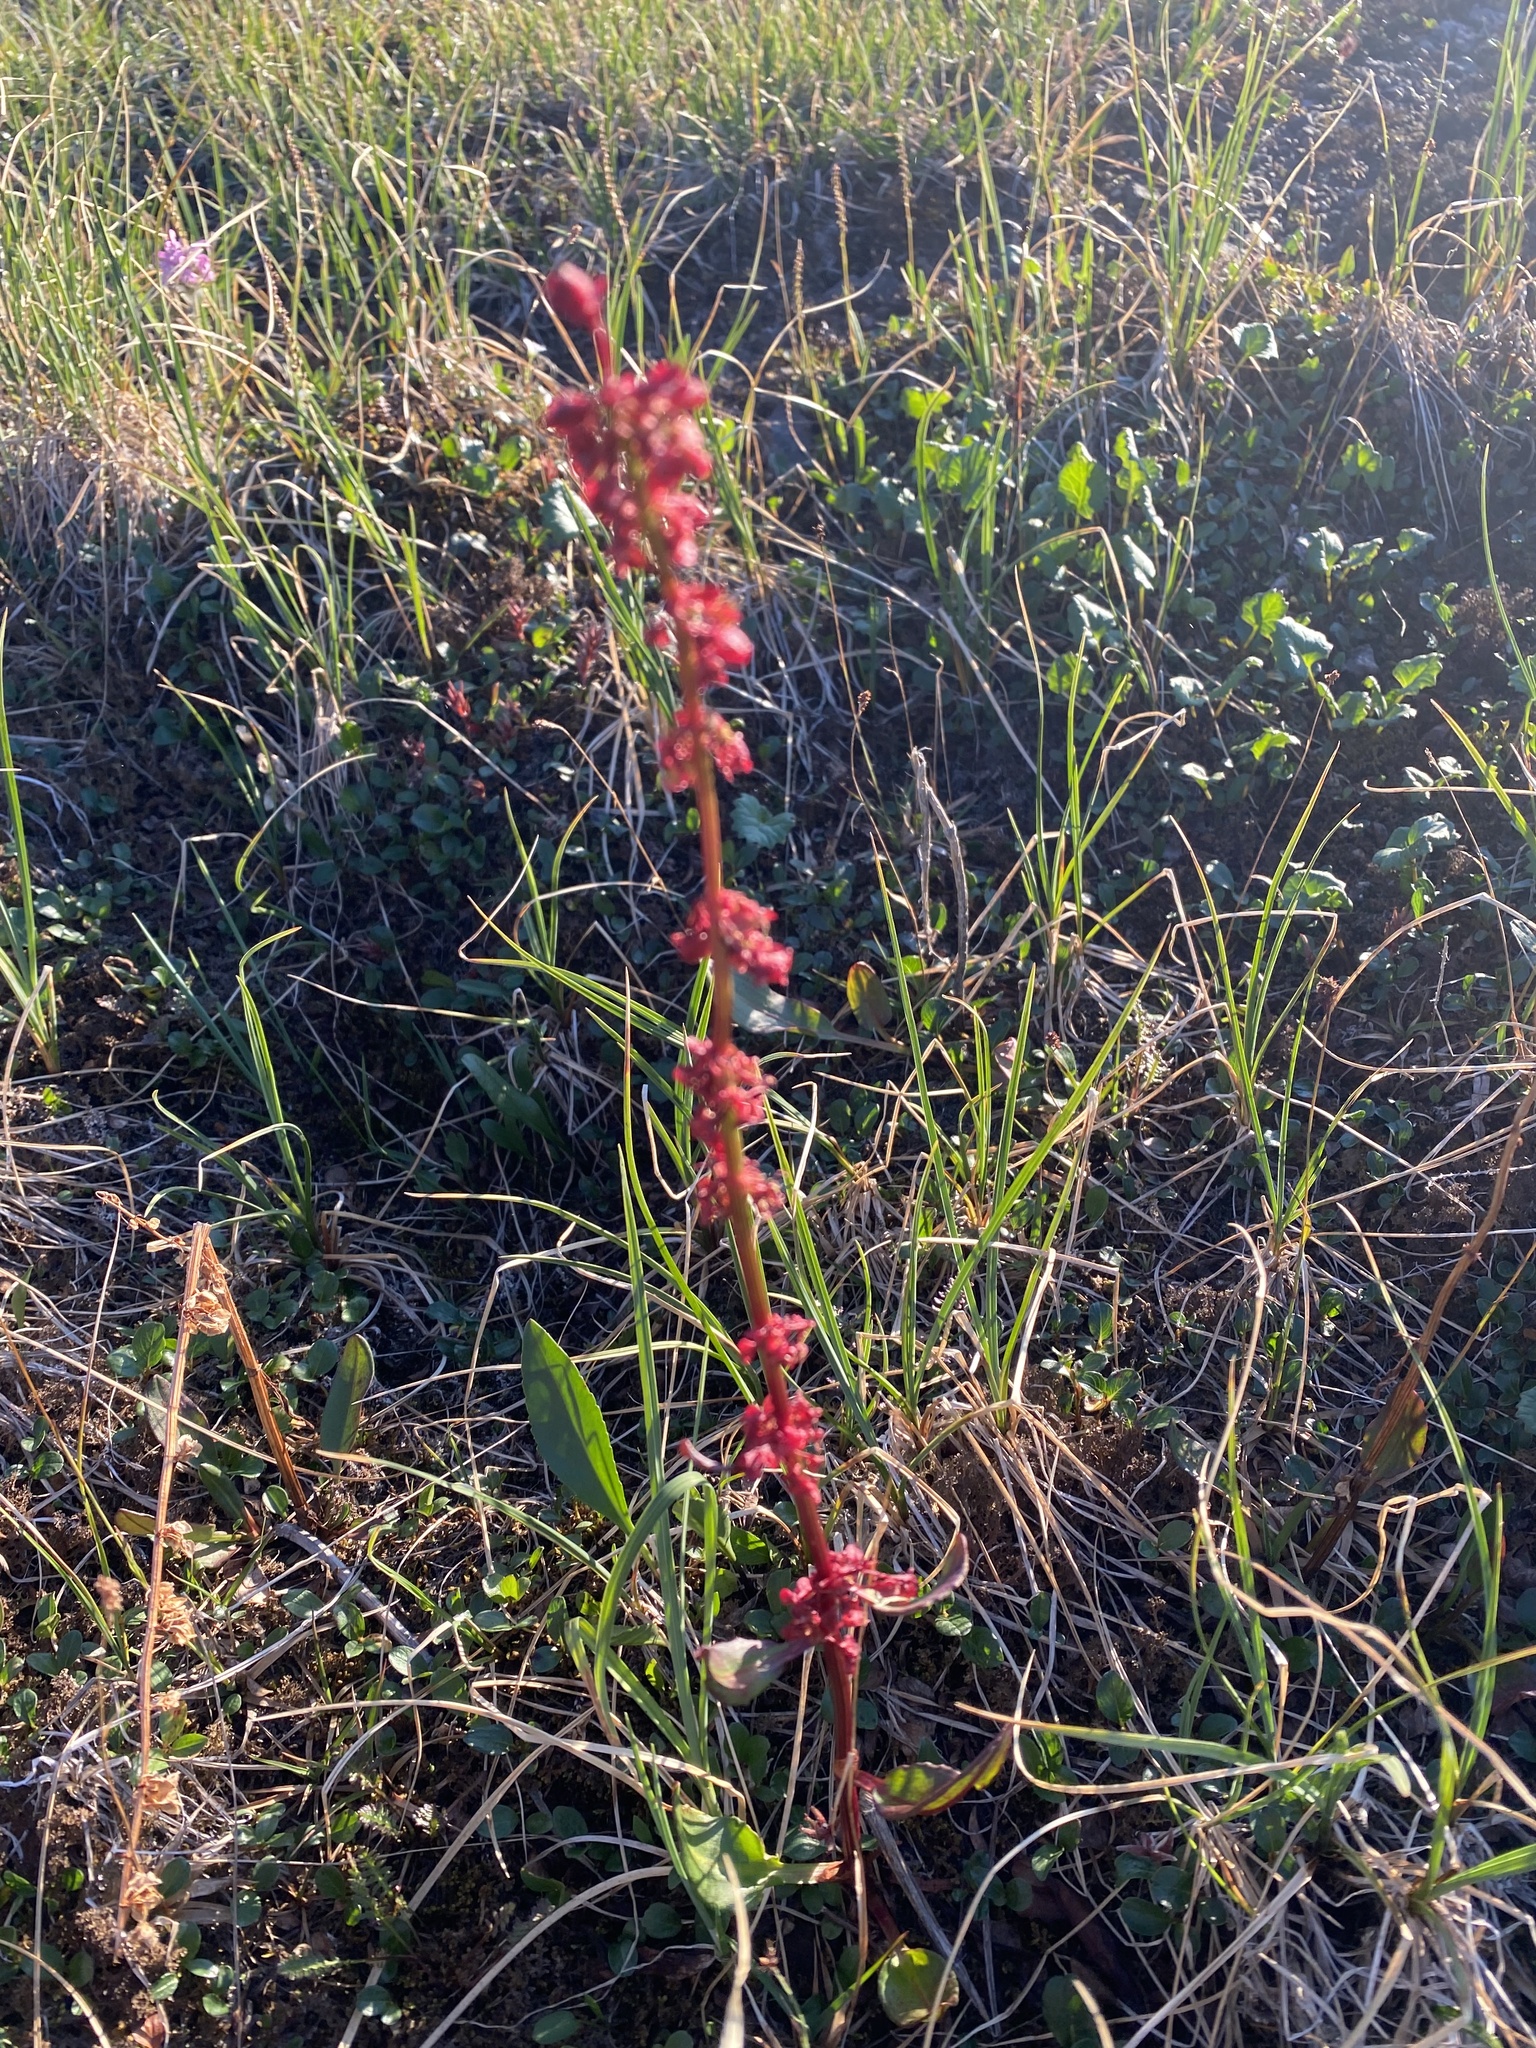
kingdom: Plantae
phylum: Tracheophyta
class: Magnoliopsida
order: Caryophyllales
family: Polygonaceae
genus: Rumex
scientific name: Rumex arcticus
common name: Arctic dock
